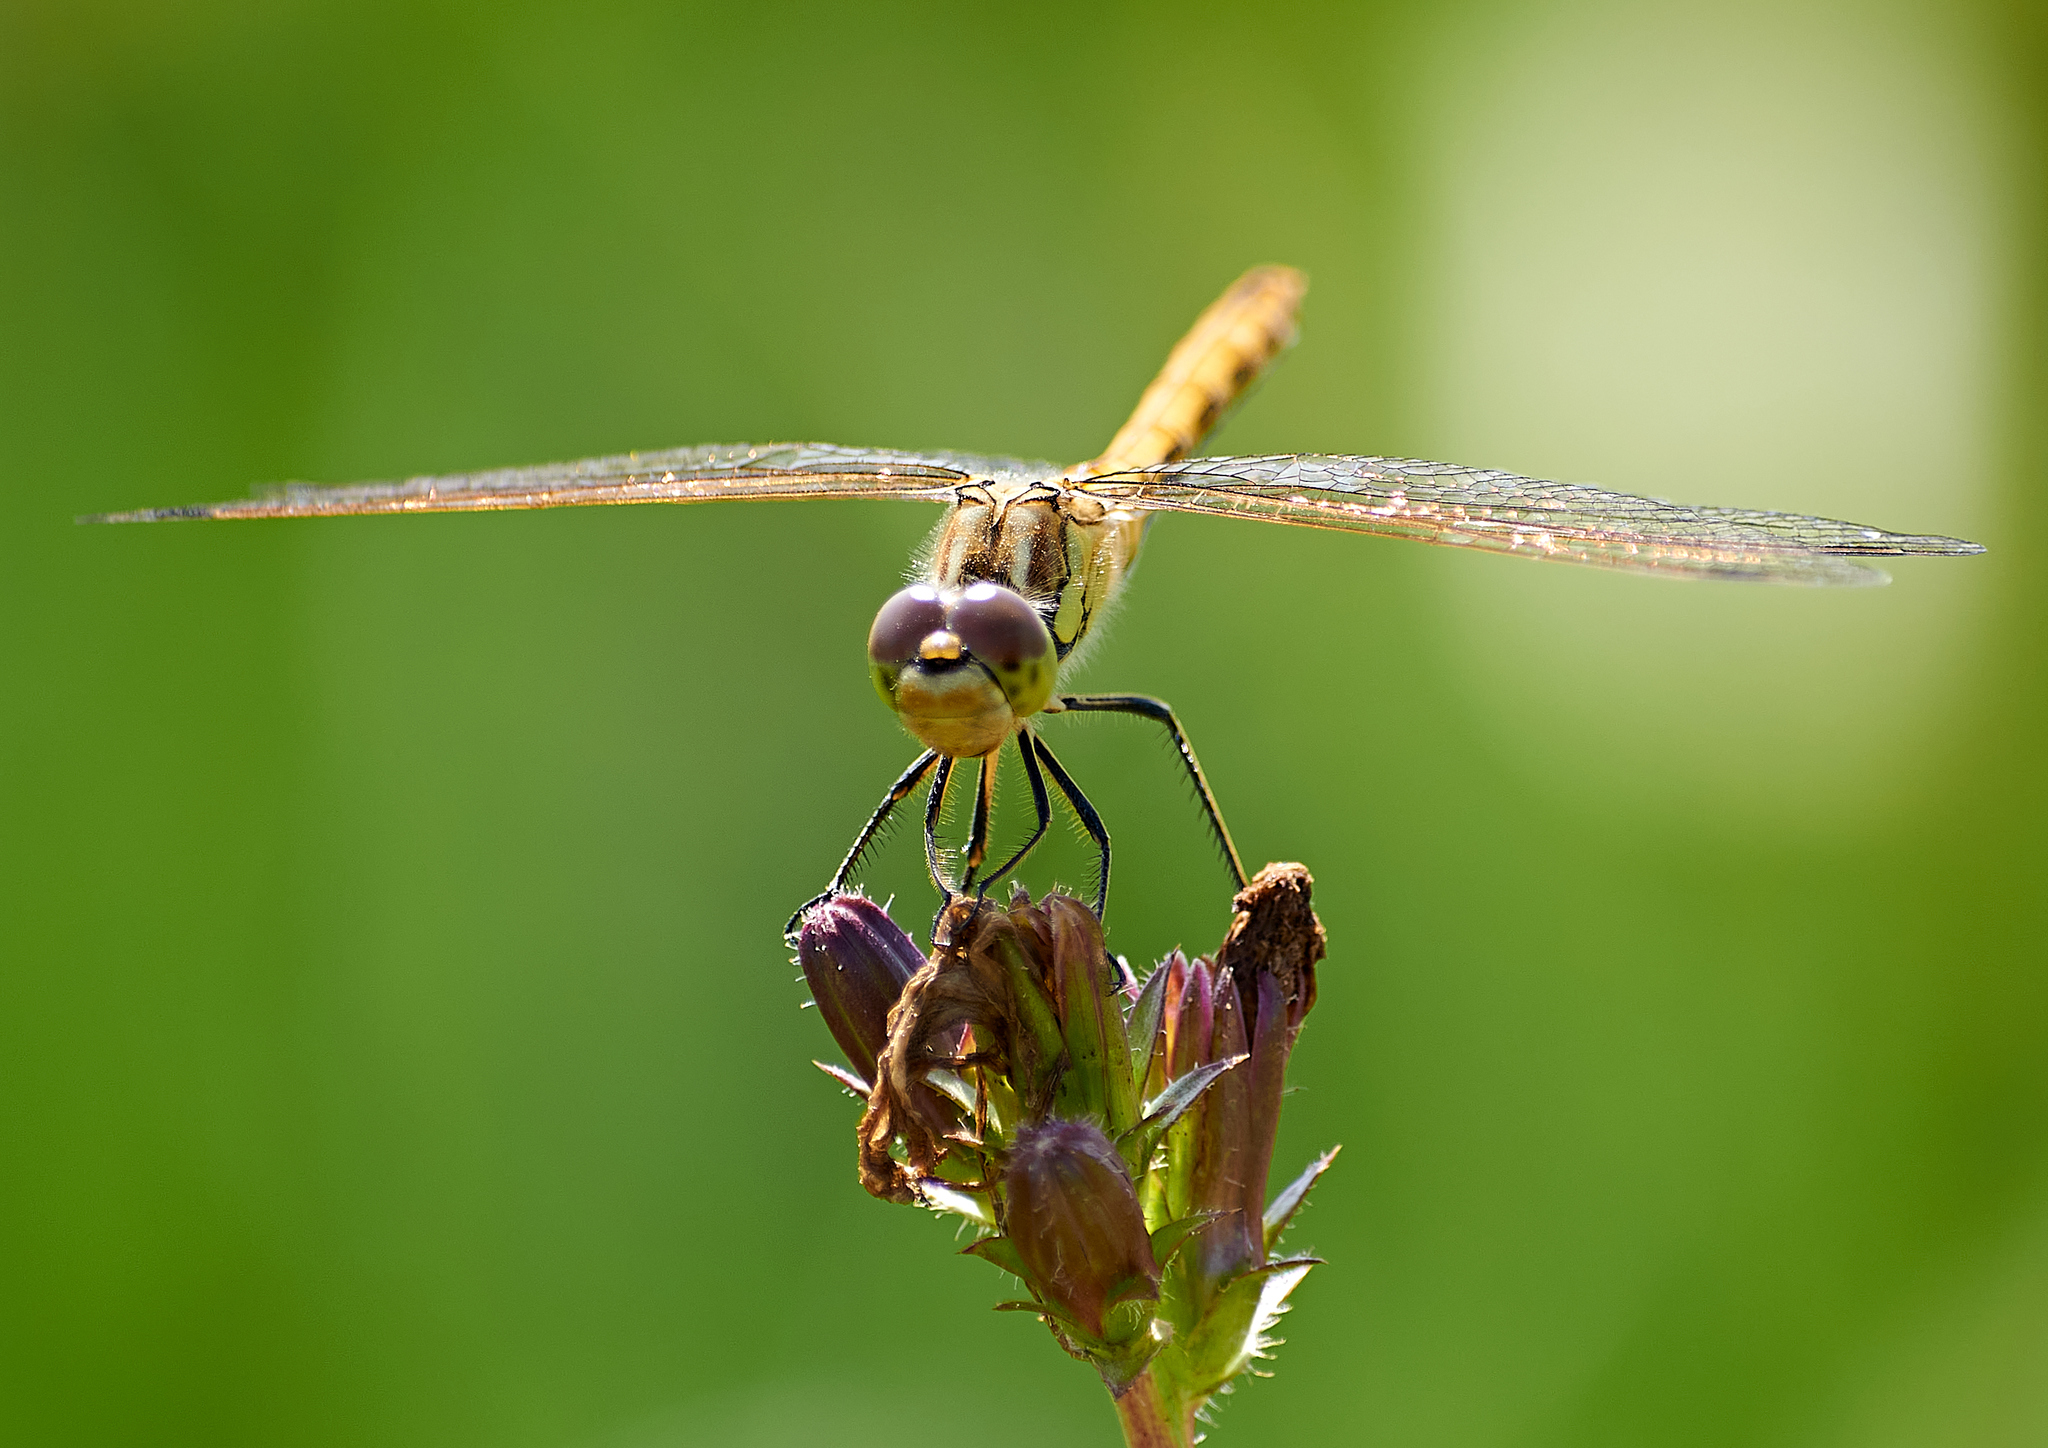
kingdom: Animalia
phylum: Arthropoda
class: Insecta
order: Odonata
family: Libellulidae
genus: Sympetrum
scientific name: Sympetrum vulgatum
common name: Vagrant darter
